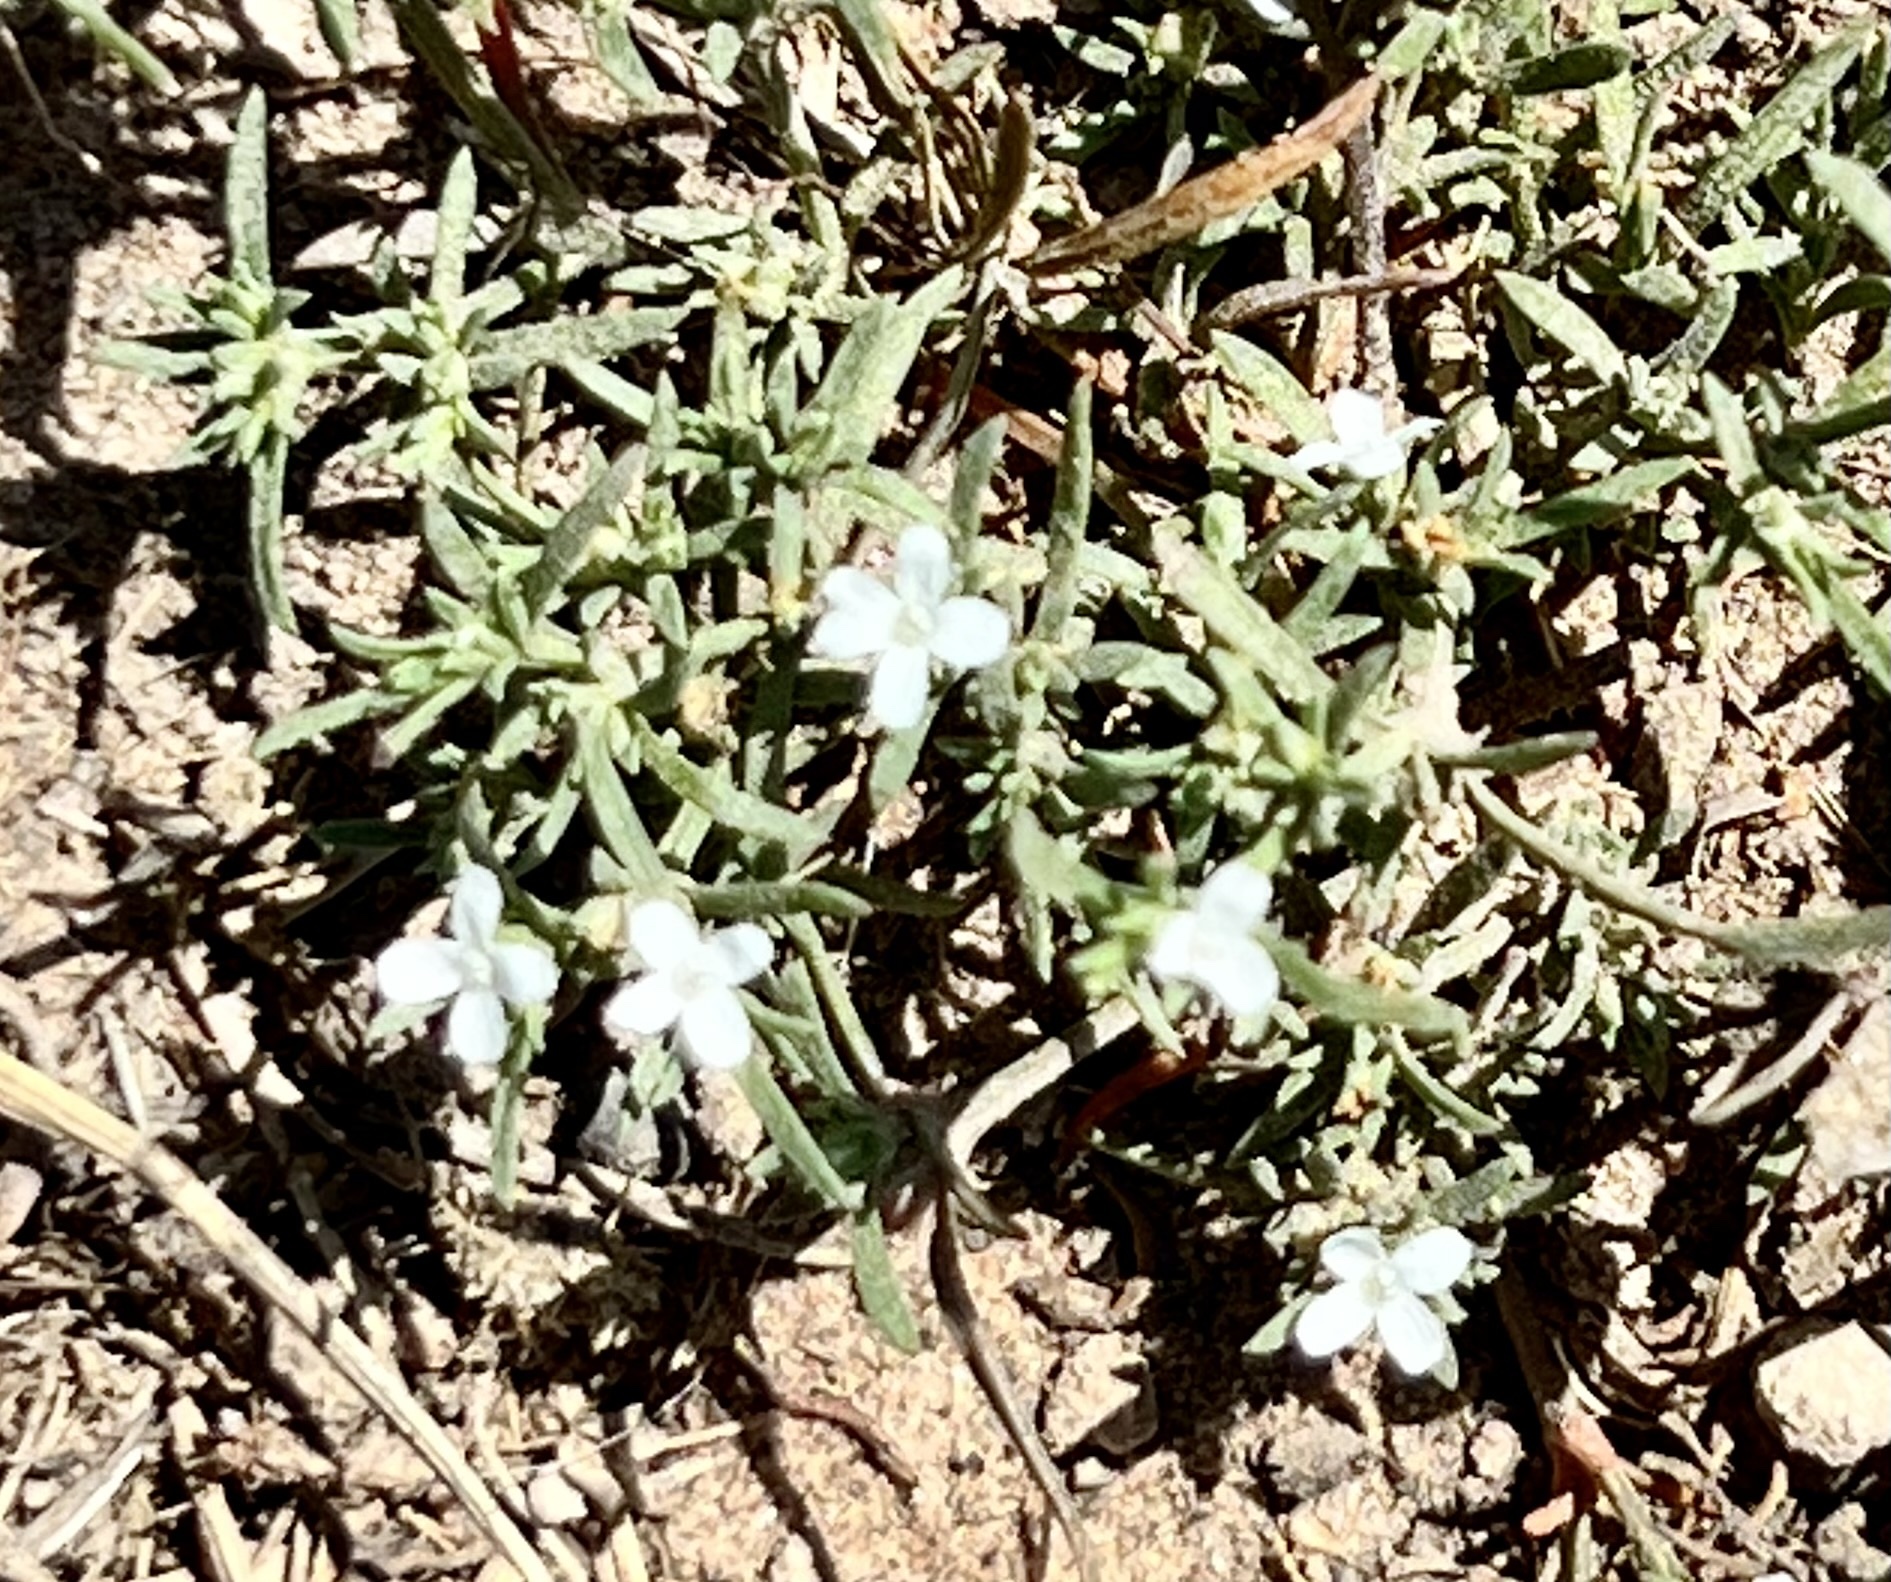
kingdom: Plantae
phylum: Tracheophyta
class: Magnoliopsida
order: Lamiales
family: Tetrachondraceae
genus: Polypremum
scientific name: Polypremum procumbens
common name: Juniper-leaf
